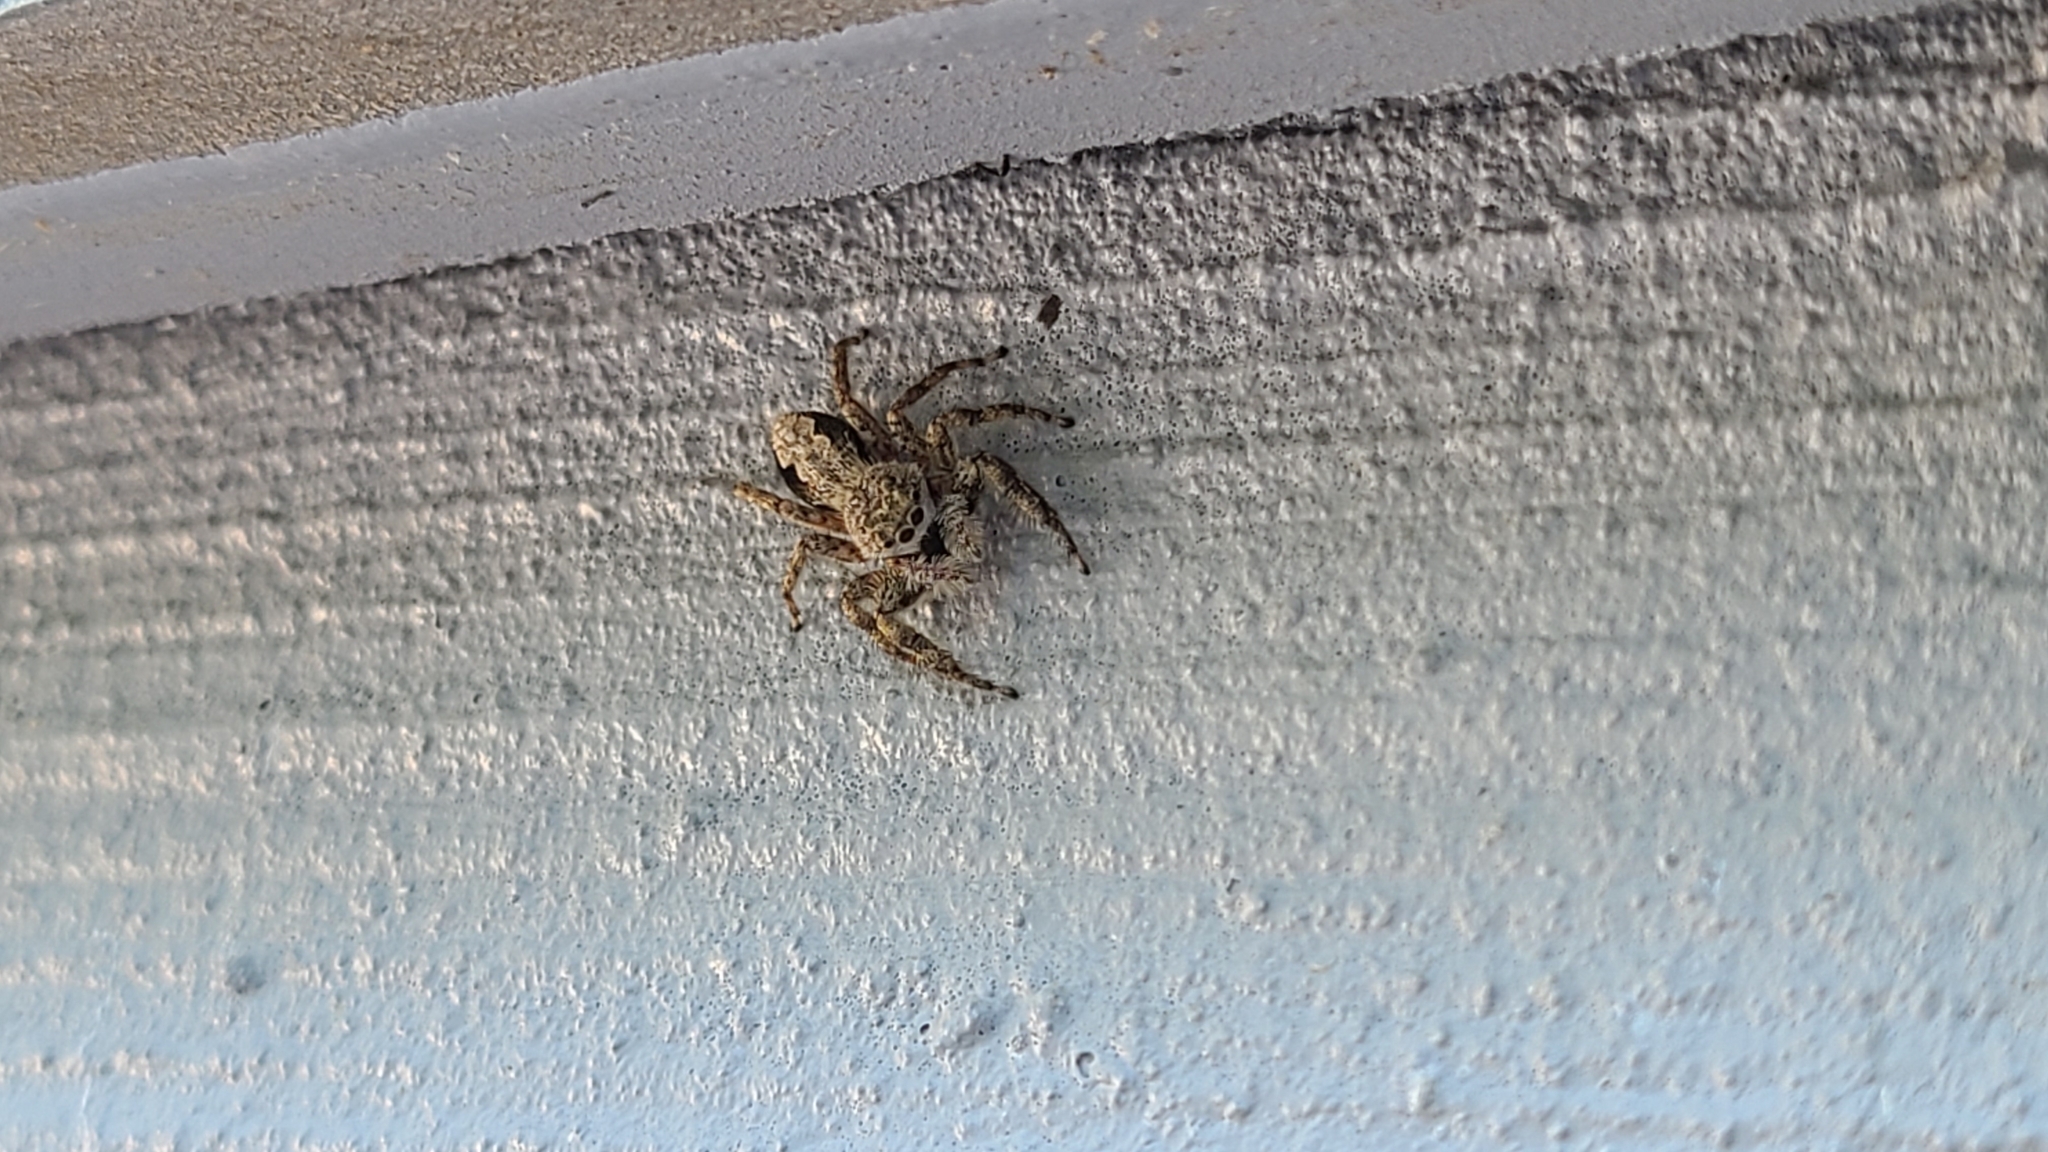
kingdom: Animalia
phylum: Arthropoda
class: Arachnida
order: Araneae
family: Salticidae
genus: Platycryptus
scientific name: Platycryptus undatus
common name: Tan jumping spider
